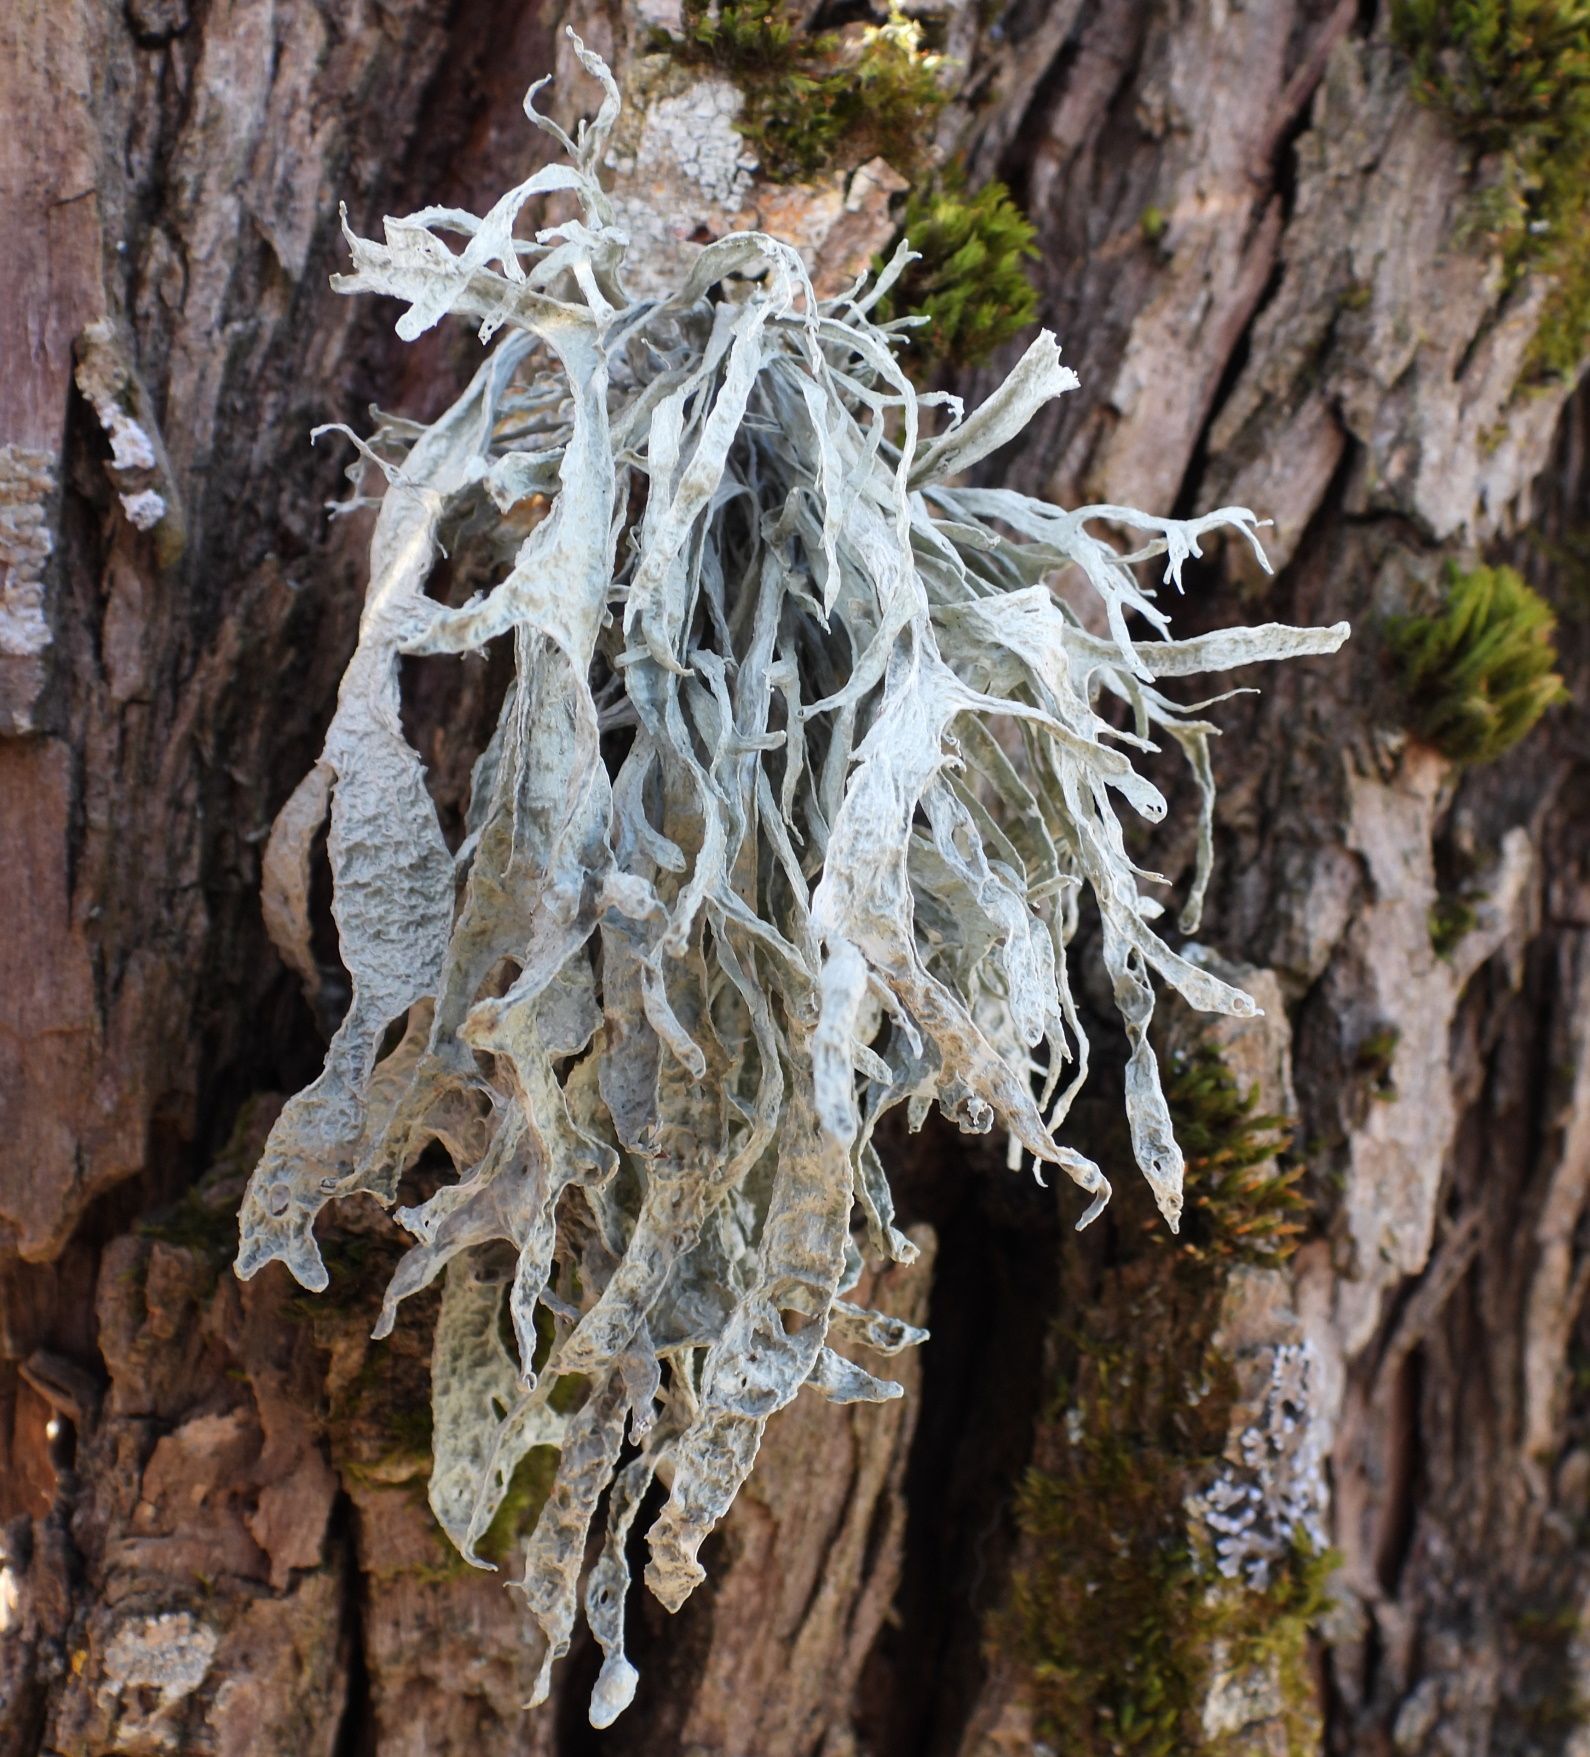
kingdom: Fungi
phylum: Ascomycota
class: Lecanoromycetes
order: Lecanorales
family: Ramalinaceae
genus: Ramalina
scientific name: Ramalina fraxinea
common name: Cartilage lichen
